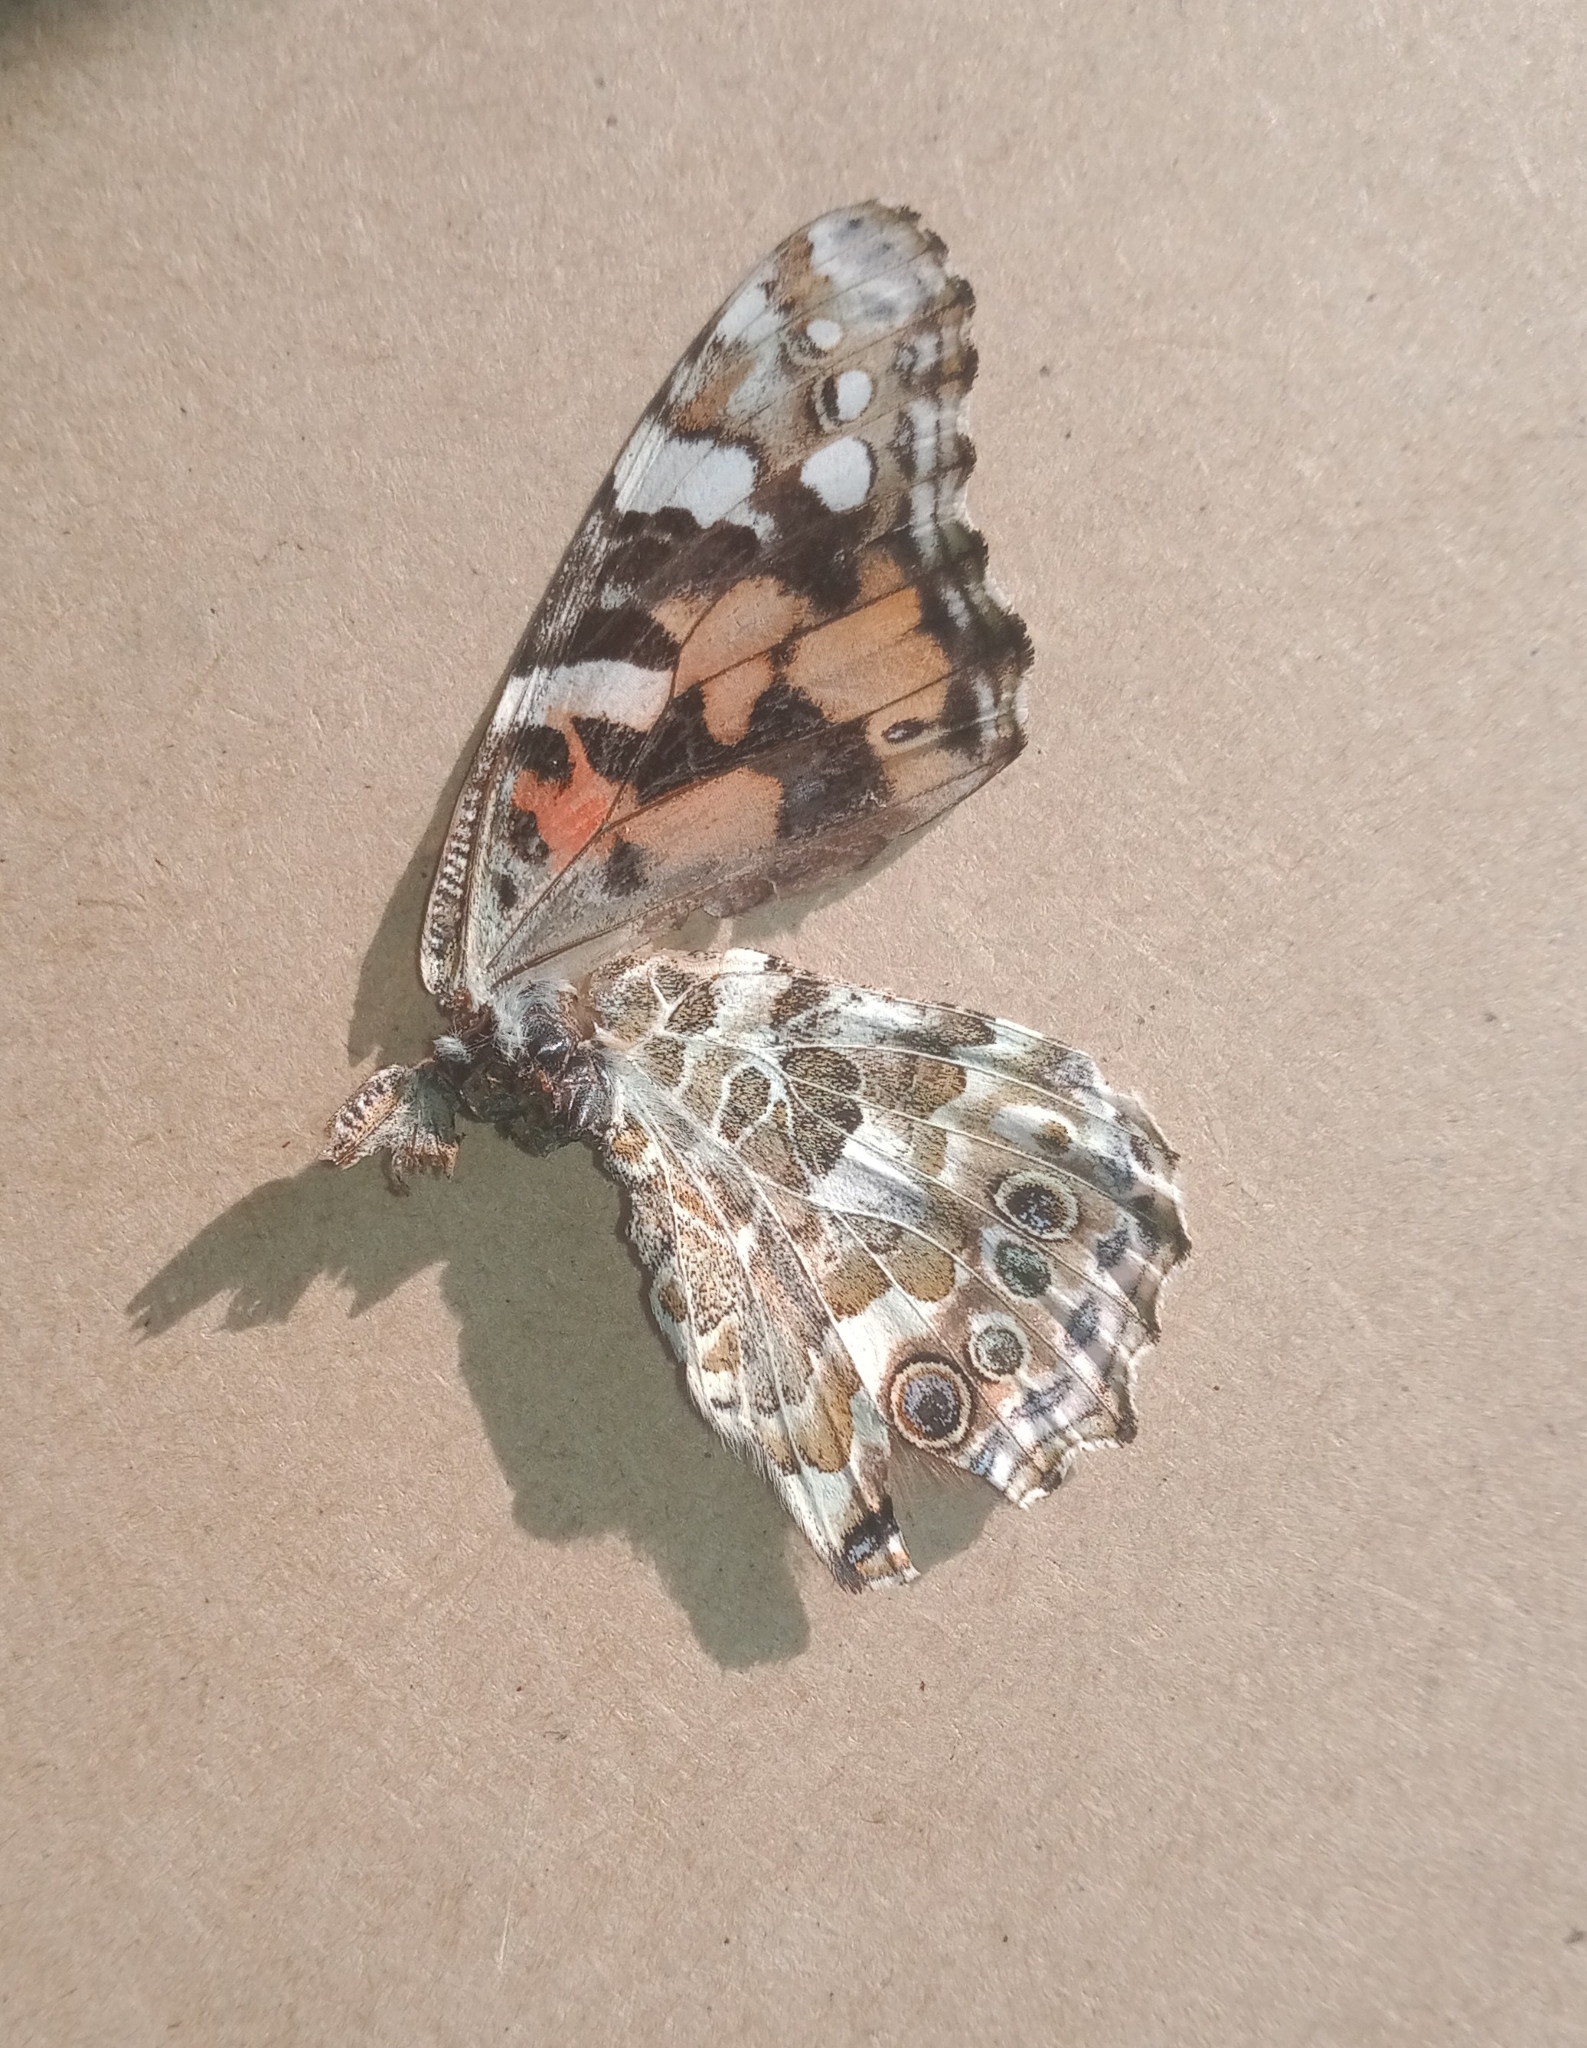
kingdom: Animalia
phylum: Arthropoda
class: Insecta
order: Lepidoptera
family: Nymphalidae
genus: Vanessa
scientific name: Vanessa cardui
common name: Painted lady
